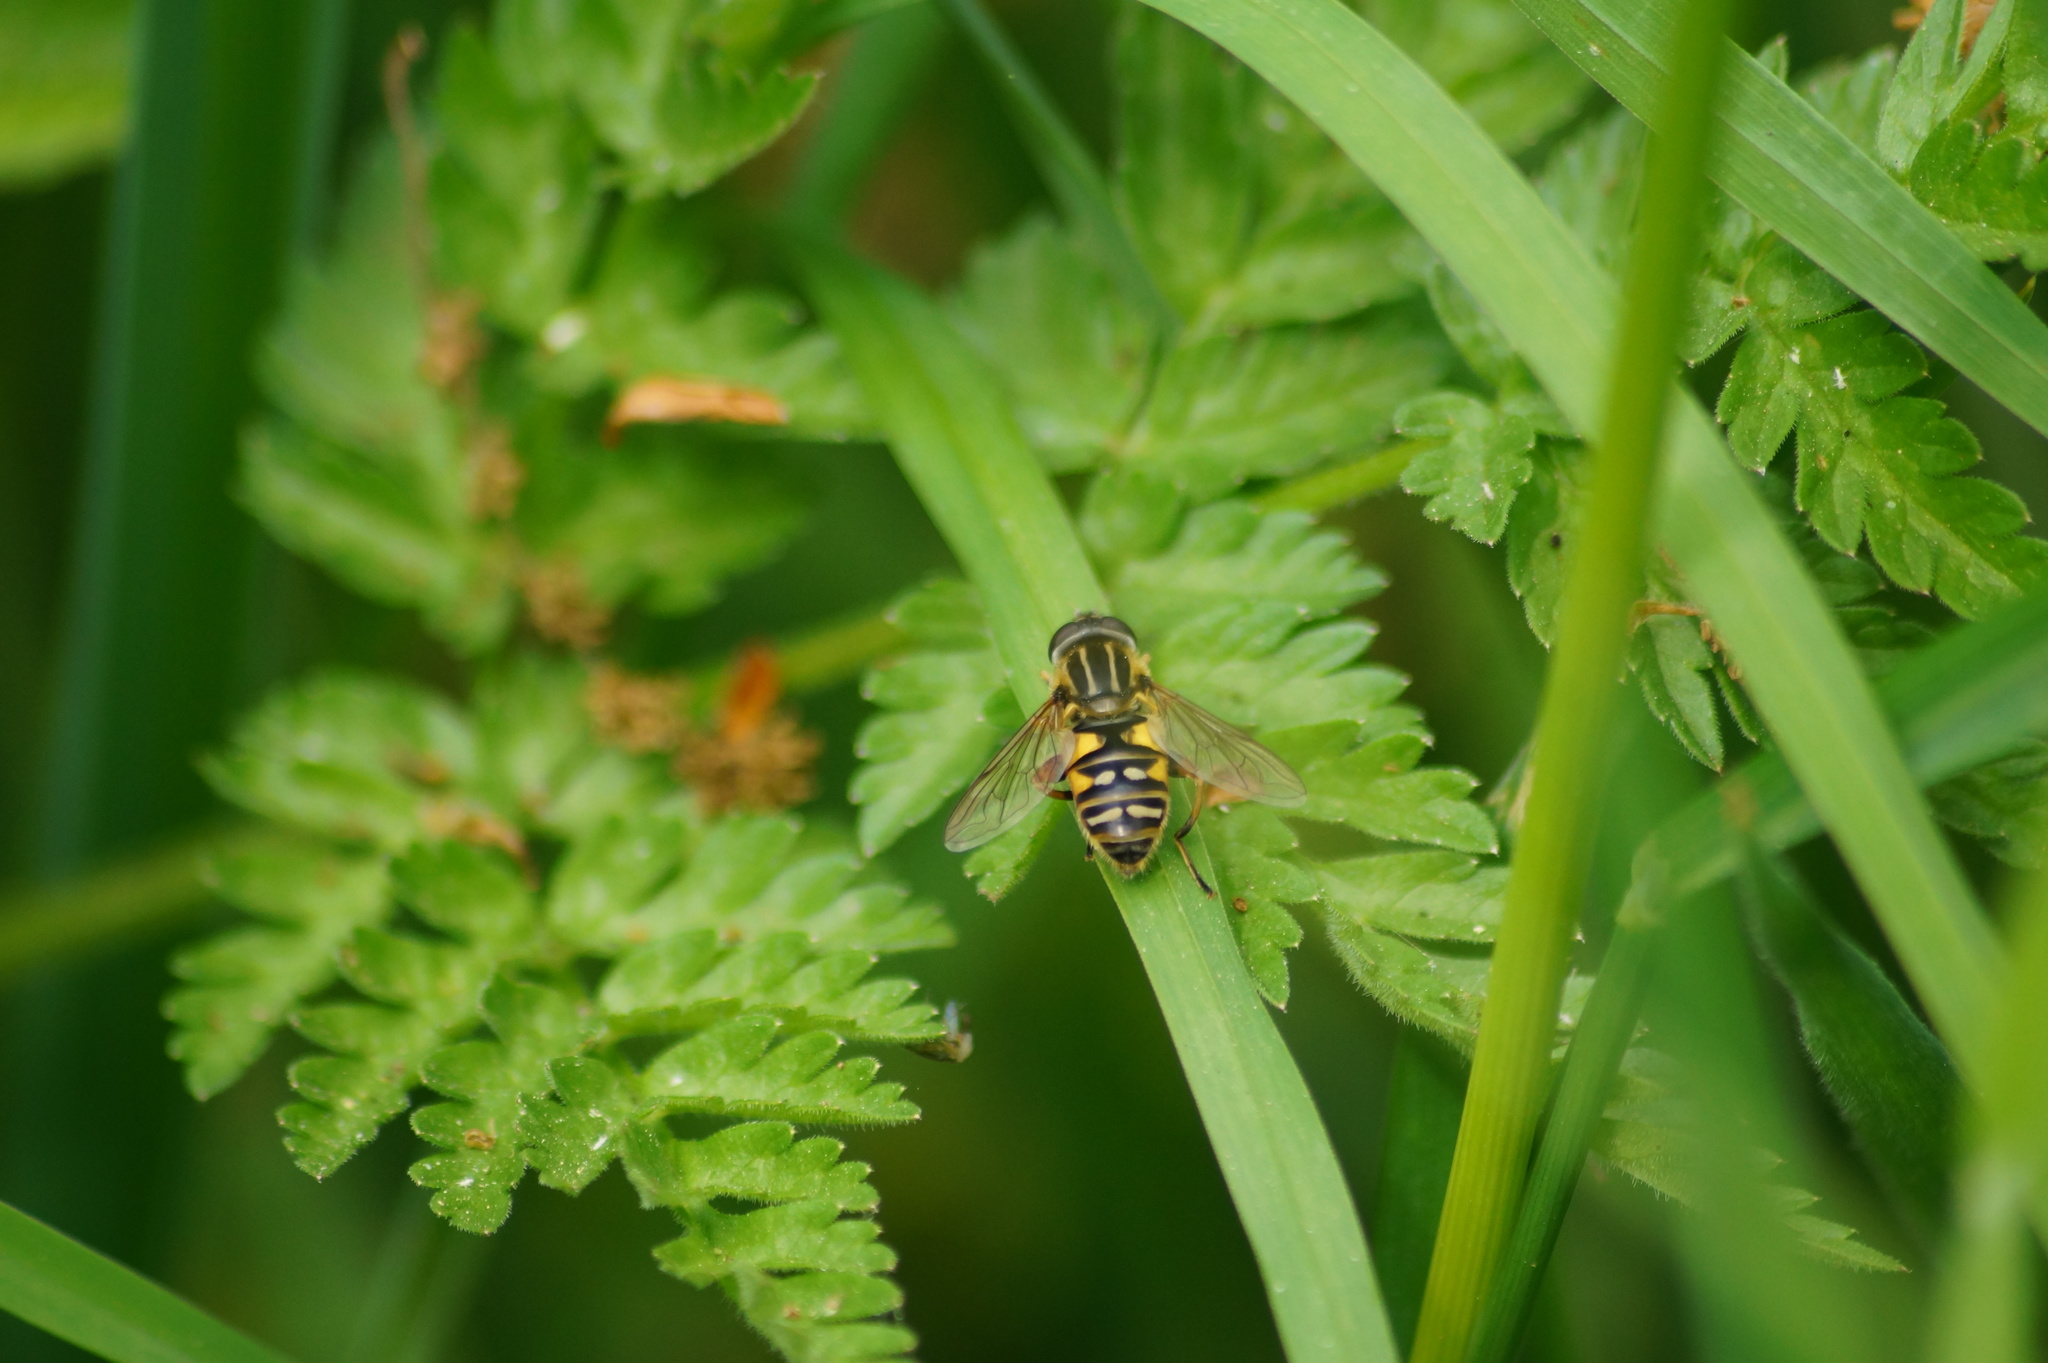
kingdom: Animalia
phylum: Arthropoda
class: Insecta
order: Diptera
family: Syrphidae
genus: Helophilus
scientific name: Helophilus pendulus
